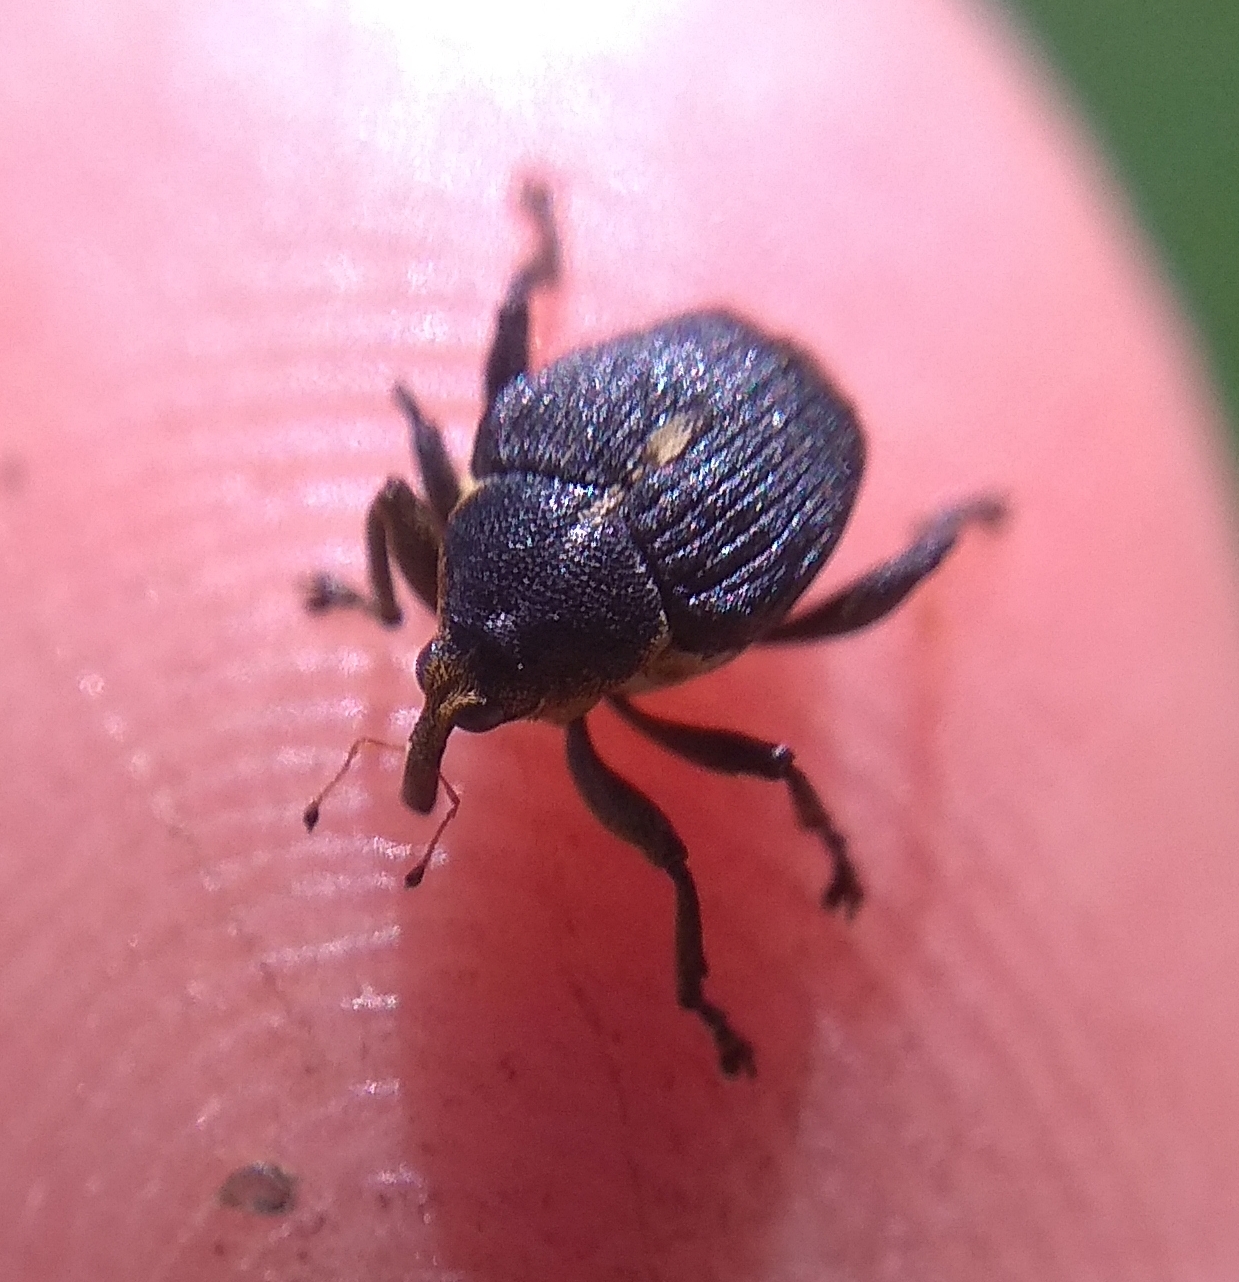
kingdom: Animalia
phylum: Arthropoda
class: Insecta
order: Coleoptera
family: Curculionidae
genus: Mononychus
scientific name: Mononychus punctumalbum
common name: Iris weevil
